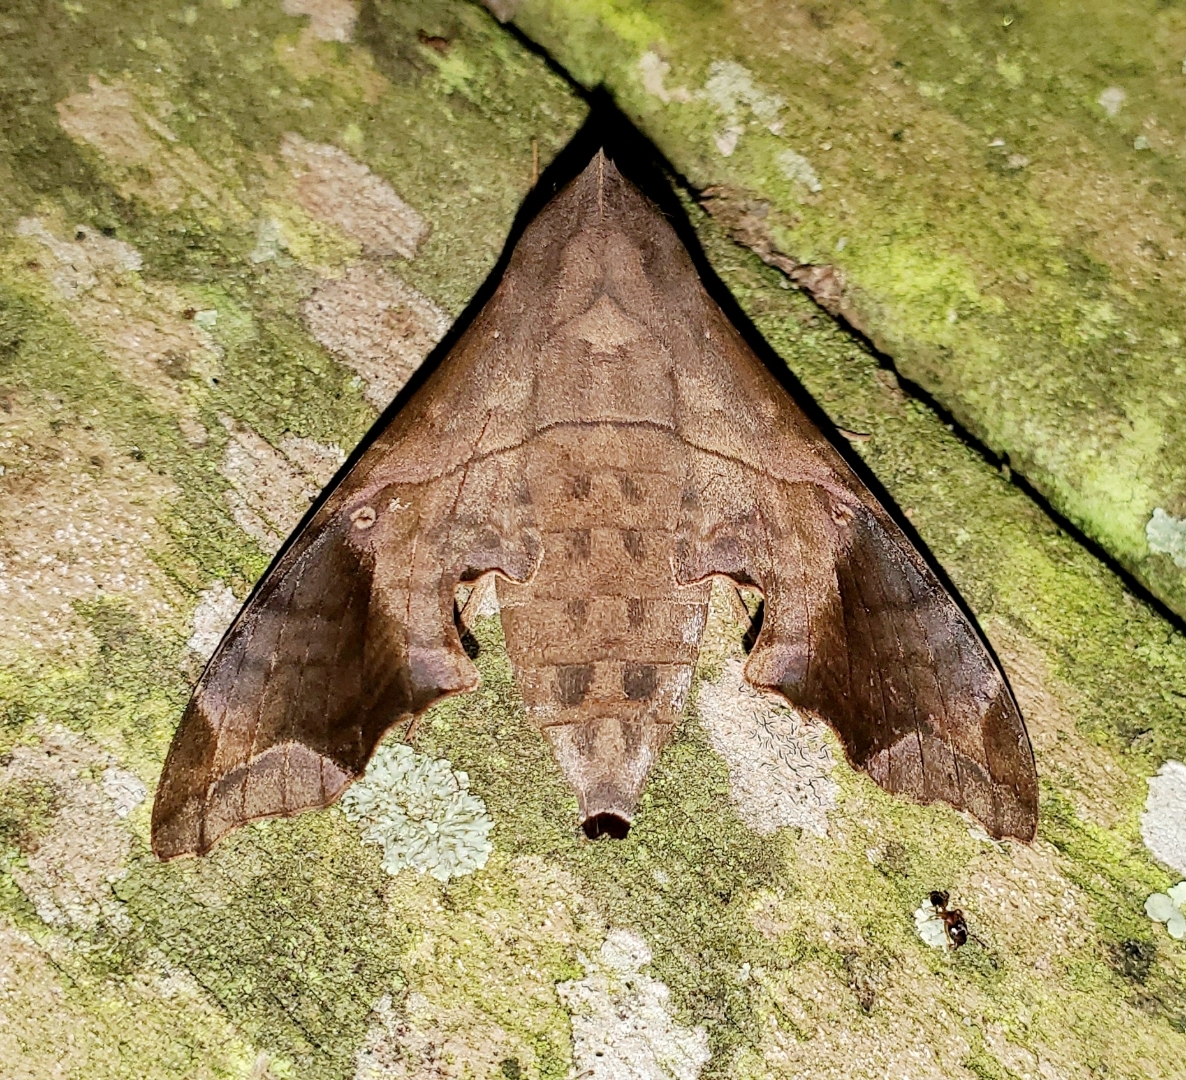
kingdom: Animalia
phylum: Arthropoda
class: Insecta
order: Lepidoptera
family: Sphingidae
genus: Enyo
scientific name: Enyo lugubris
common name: Mournful sphinx
